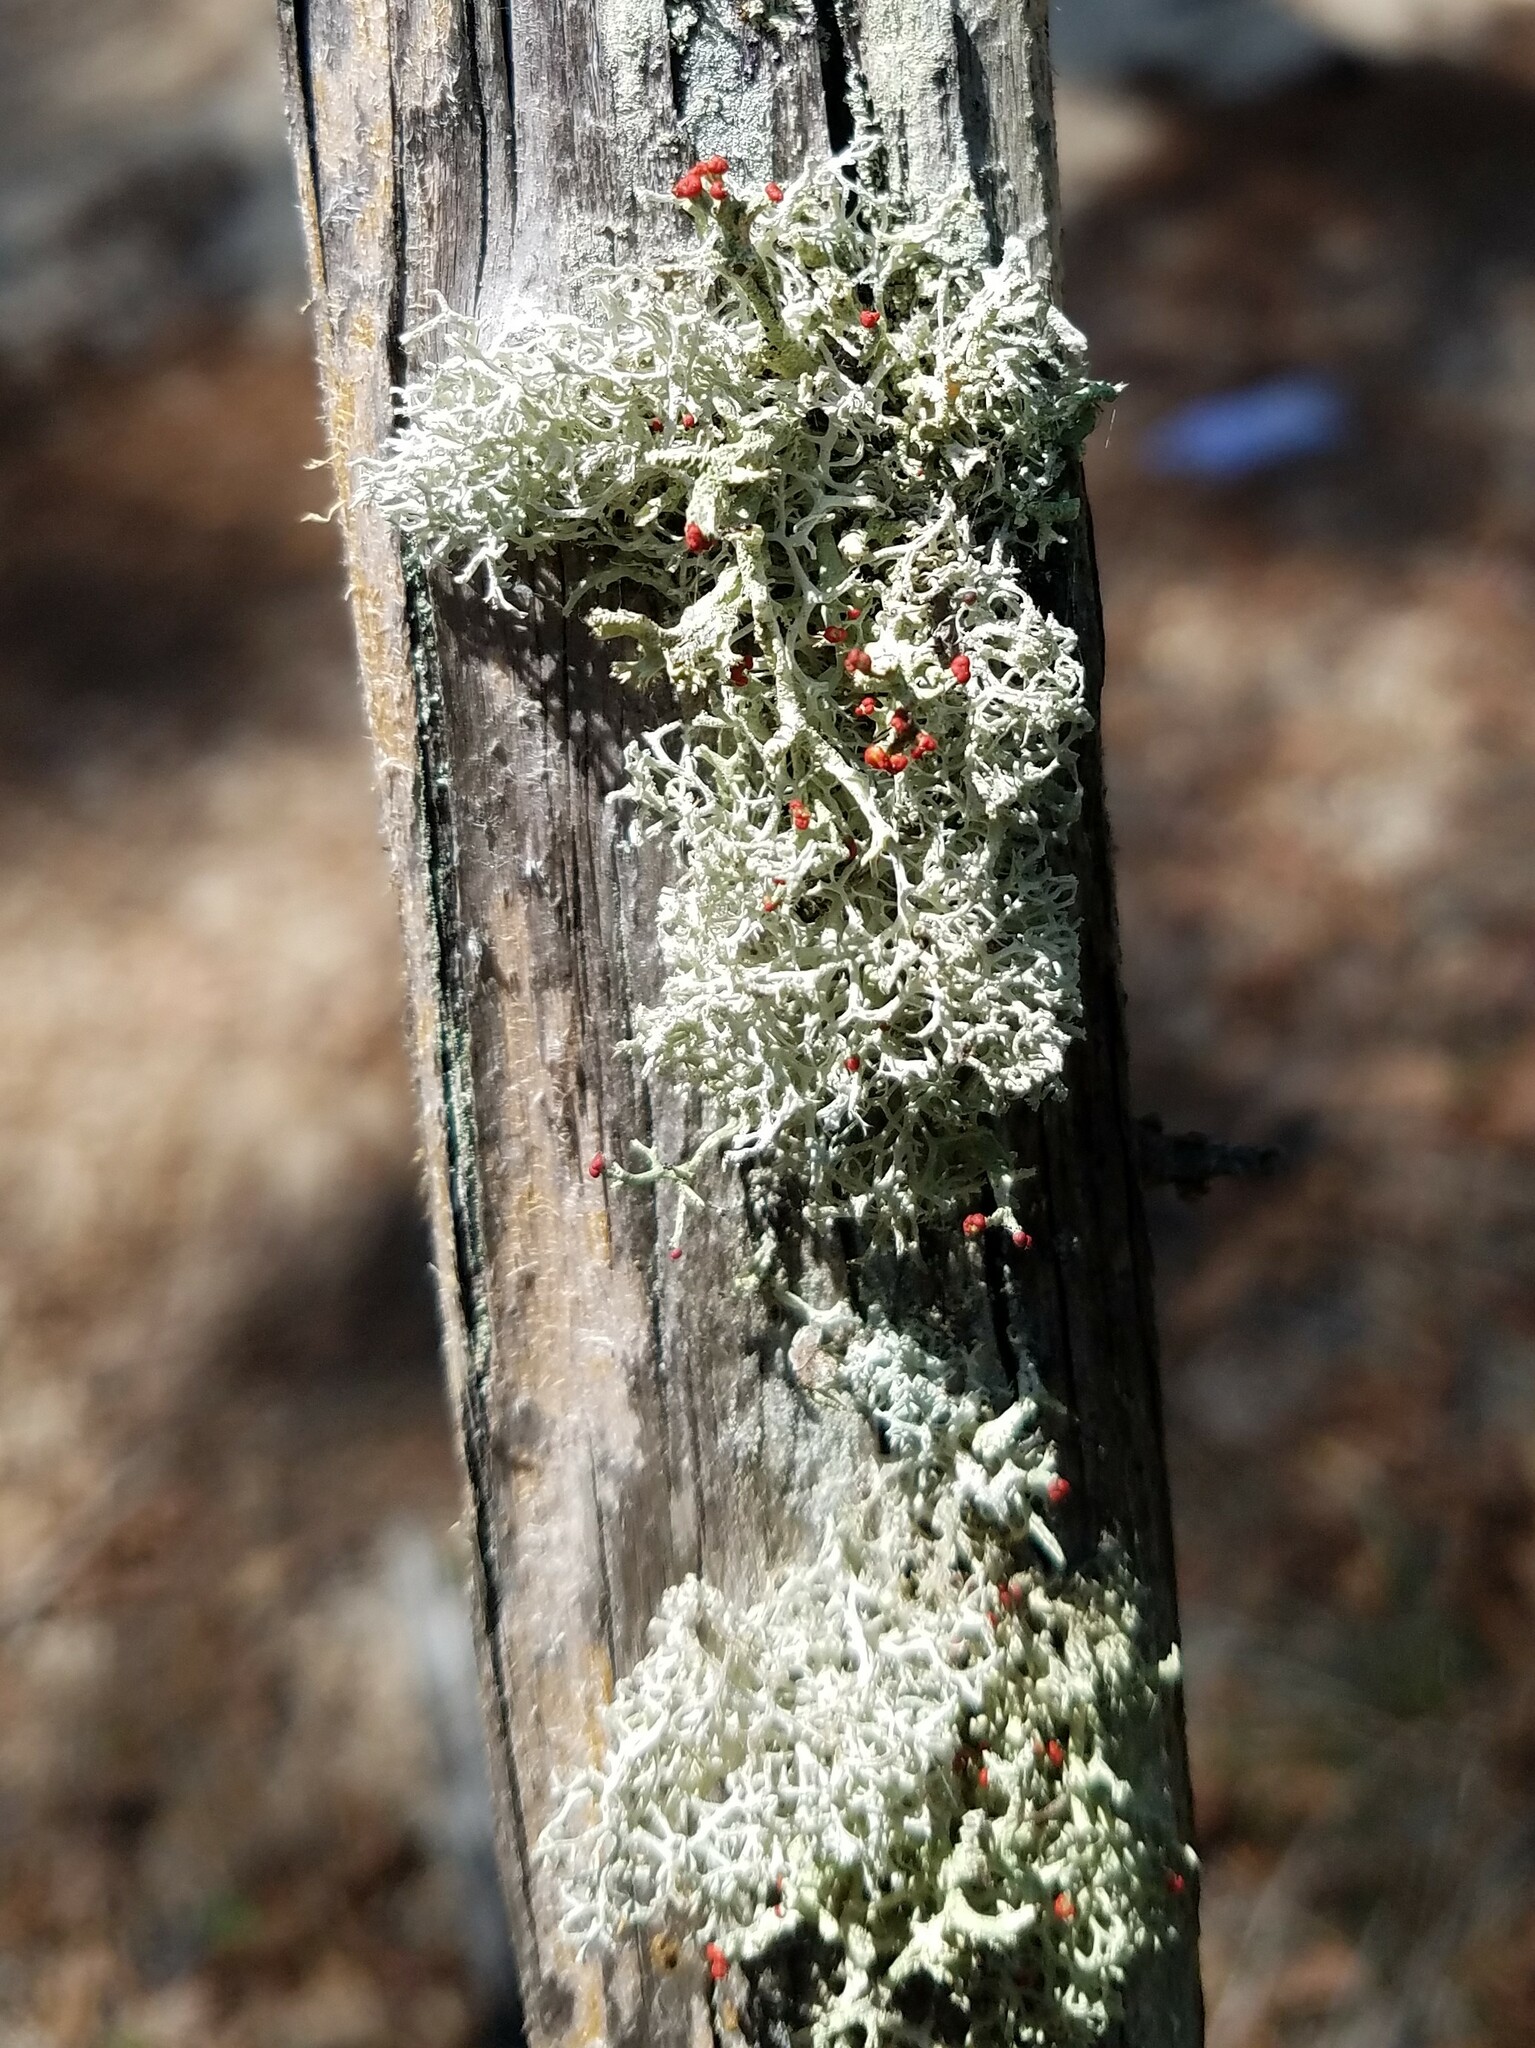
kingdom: Fungi
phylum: Ascomycota
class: Lecanoromycetes
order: Lecanorales
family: Cladoniaceae
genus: Cladonia
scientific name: Cladonia leporina
